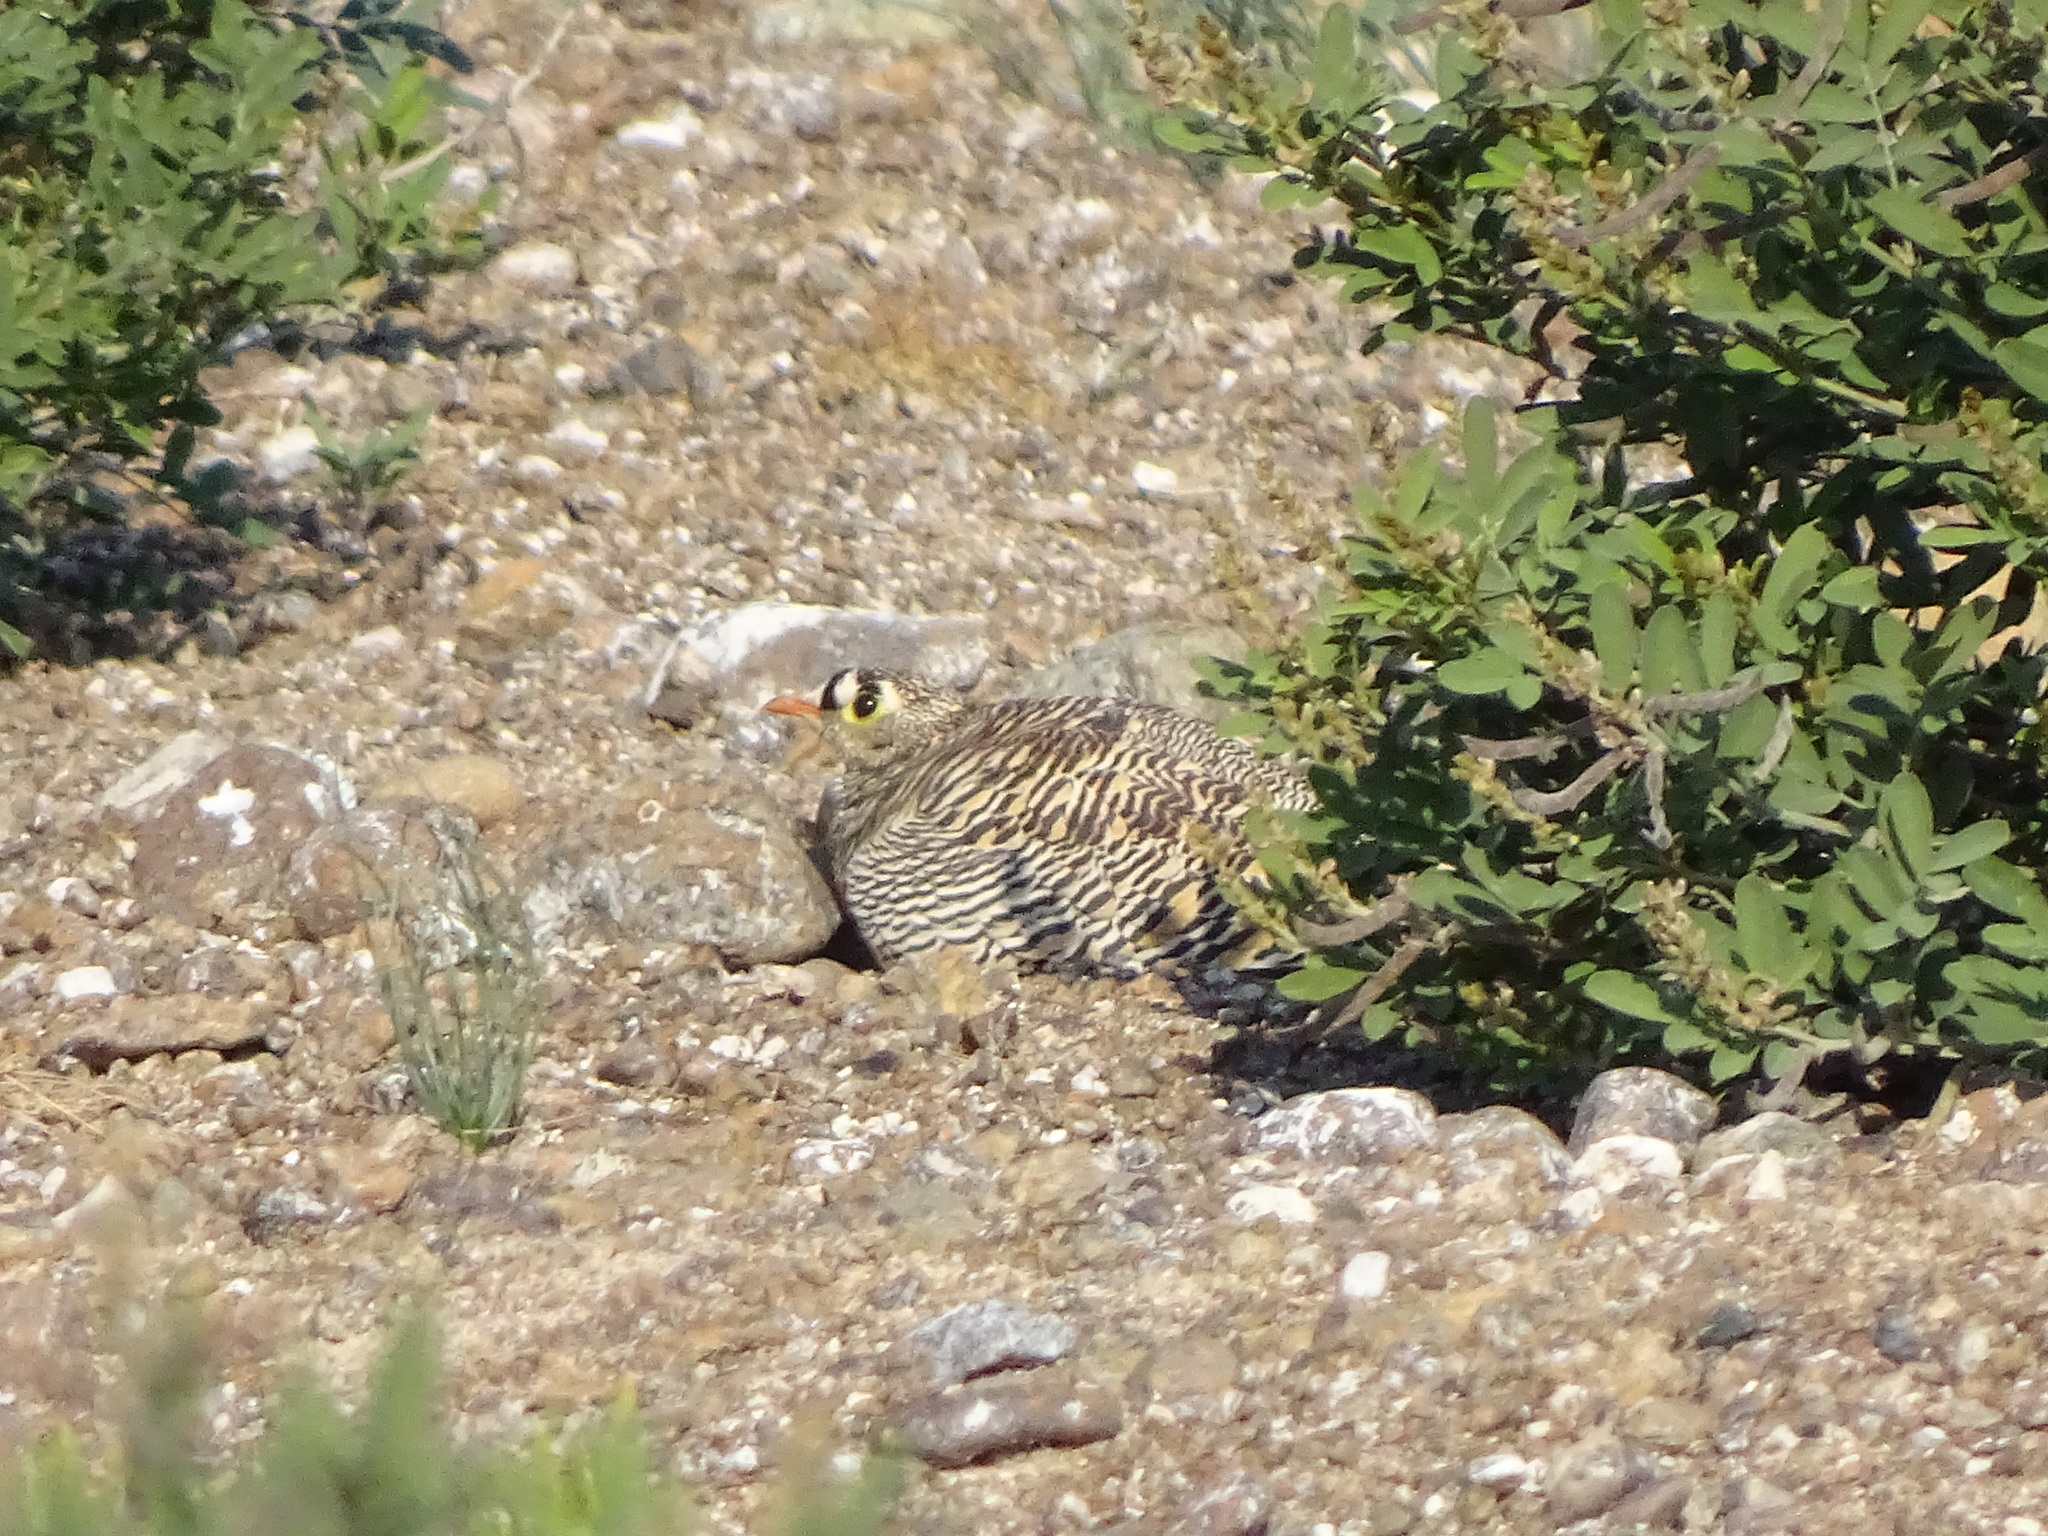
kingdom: Animalia
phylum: Chordata
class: Aves
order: Pteroclidiformes
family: Pteroclididae
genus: Pterocles
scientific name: Pterocles lichtensteinii
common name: Lichtenstein's sandgrouse
